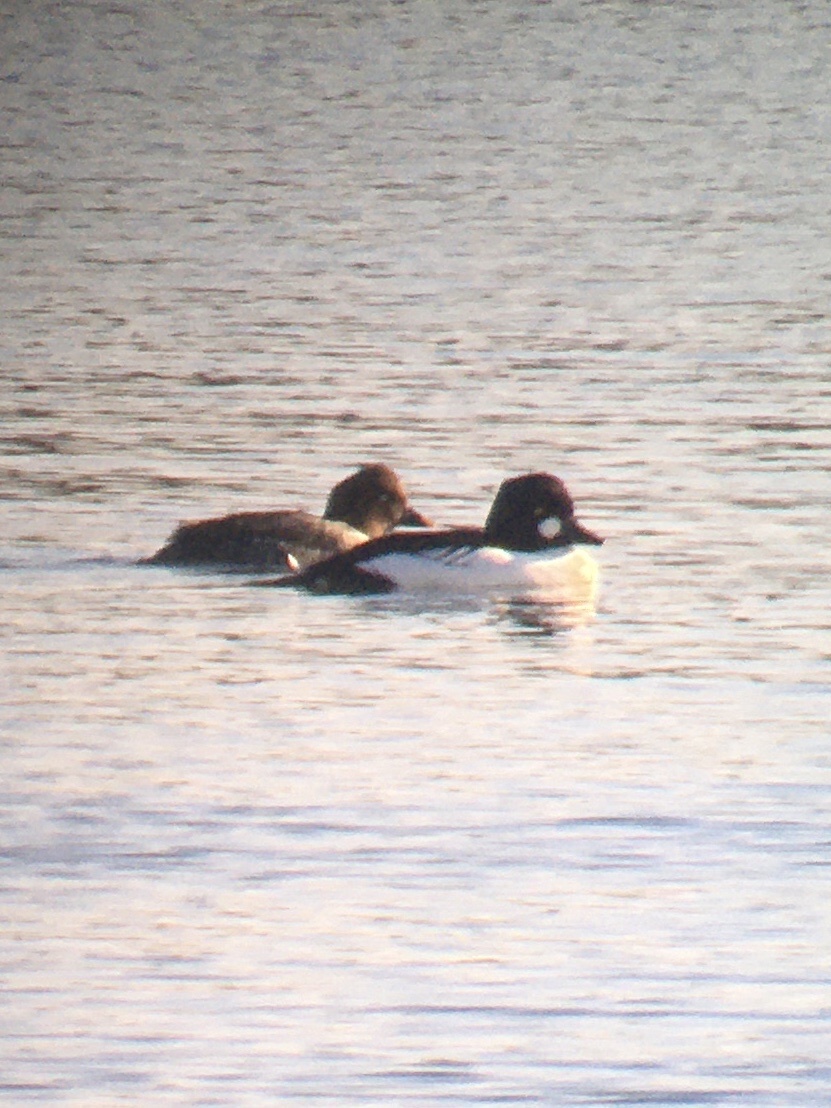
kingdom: Animalia
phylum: Chordata
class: Aves
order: Anseriformes
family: Anatidae
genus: Bucephala
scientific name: Bucephala clangula
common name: Common goldeneye
